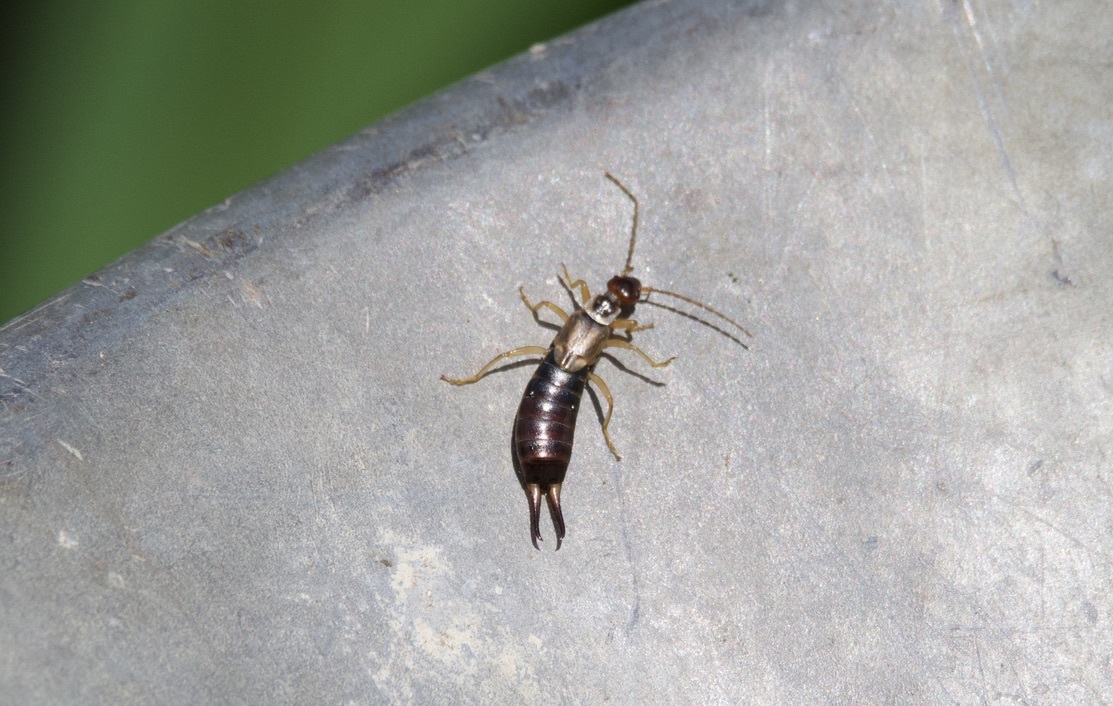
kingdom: Animalia
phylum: Arthropoda
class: Insecta
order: Dermaptera
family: Forficulidae
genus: Forficula
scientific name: Forficula
